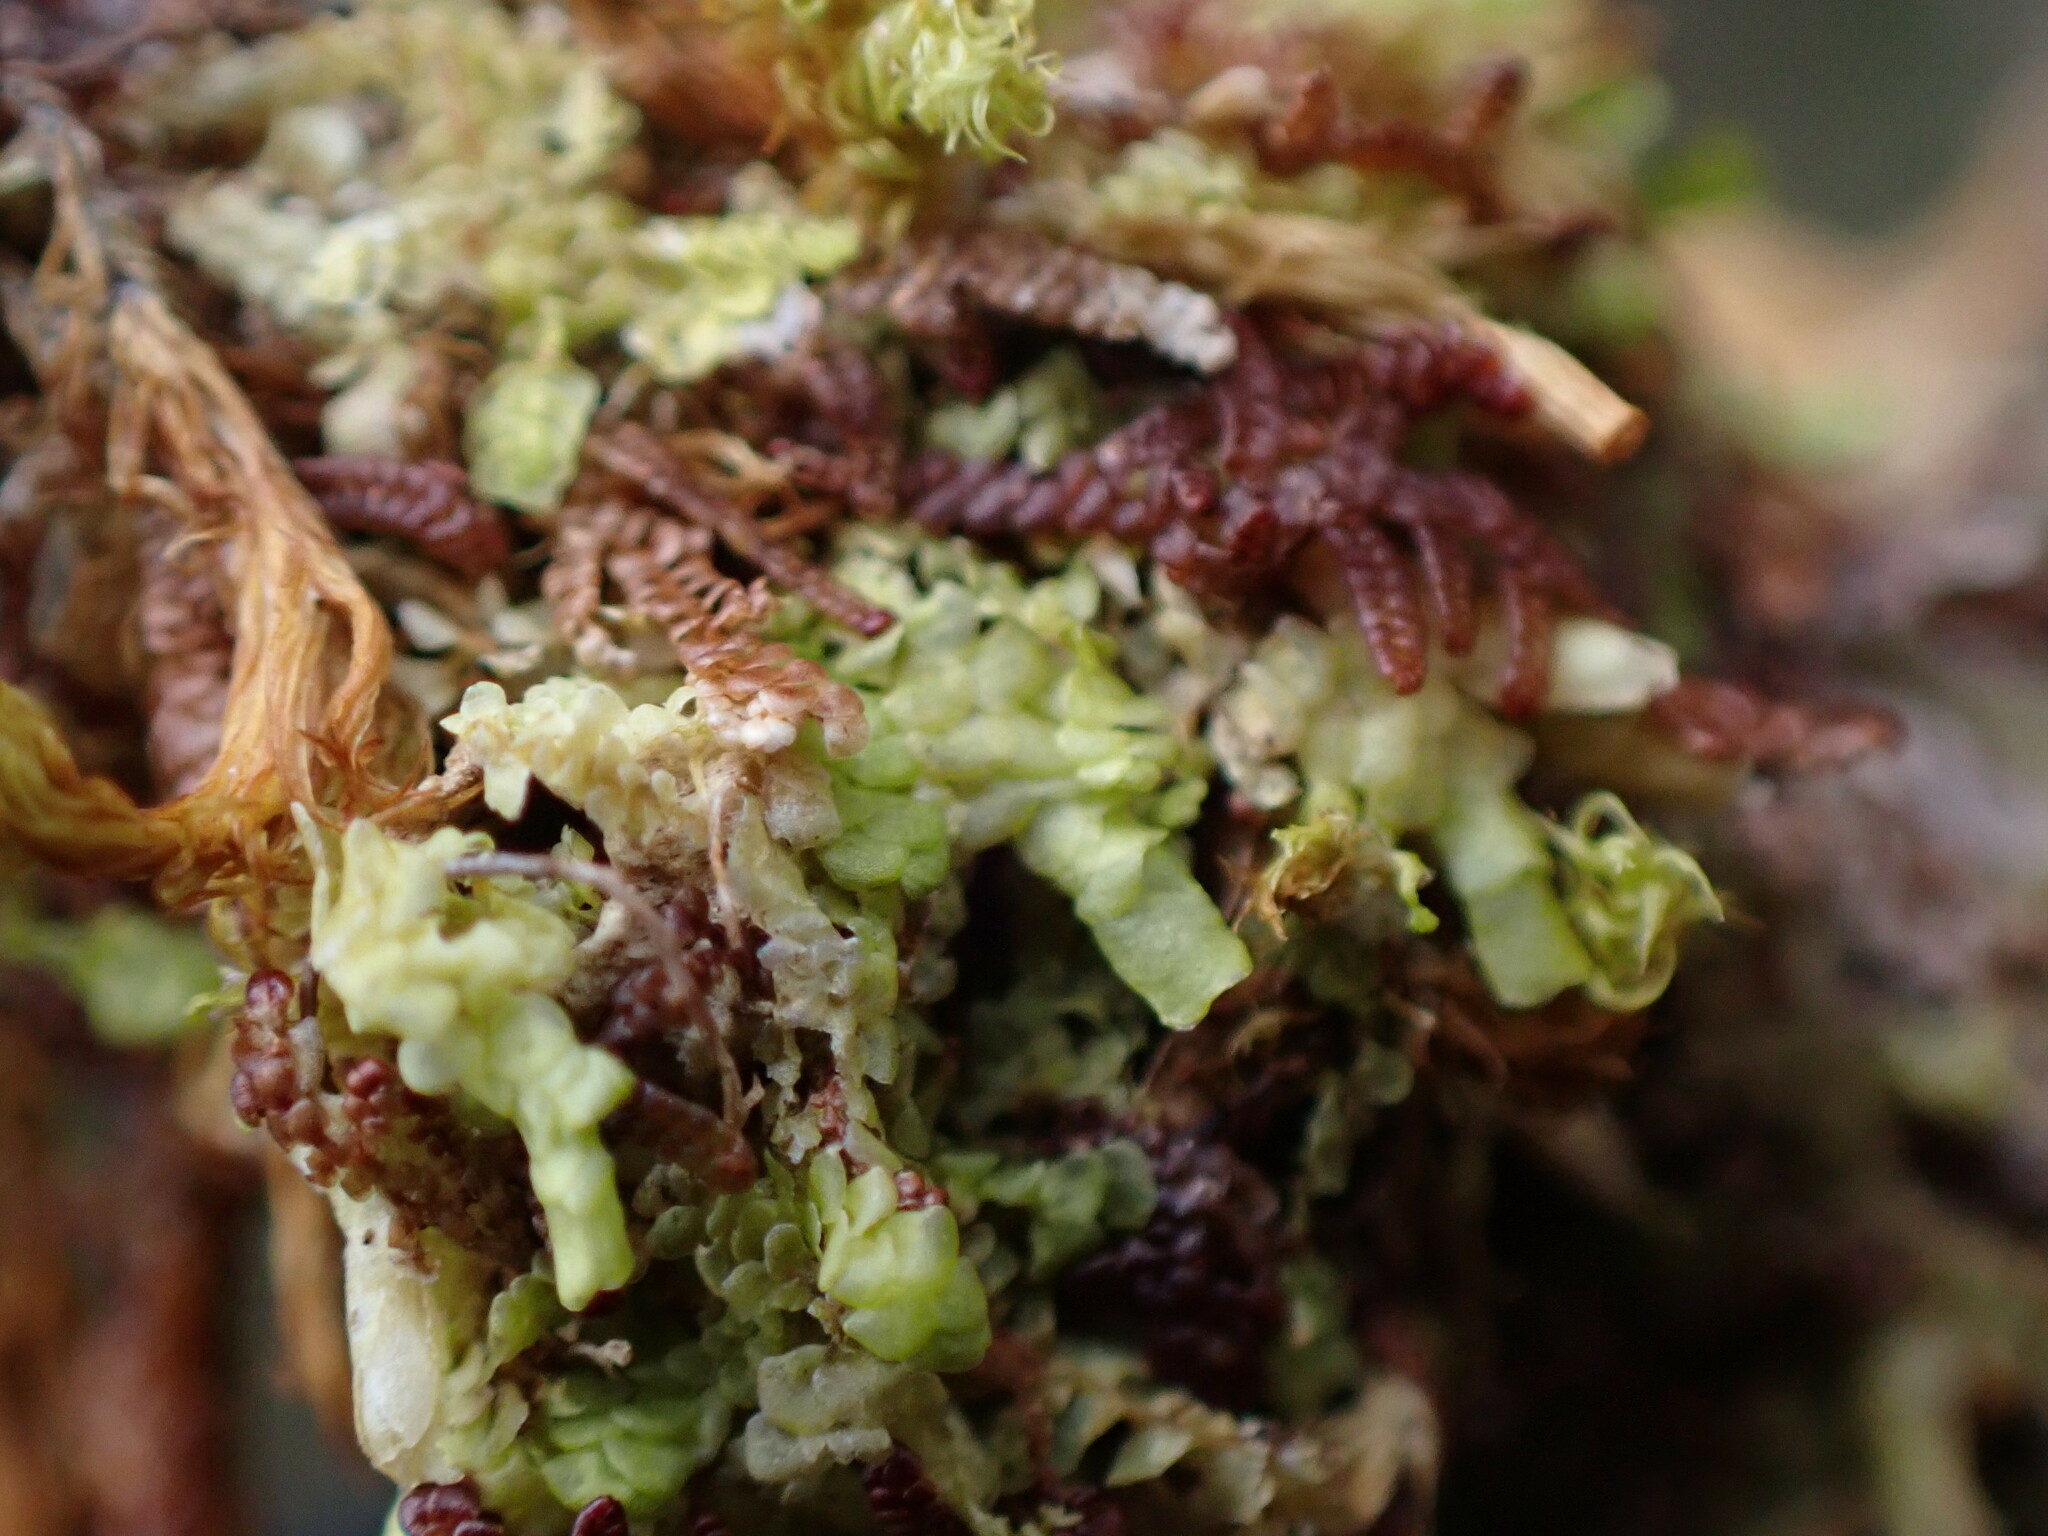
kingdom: Plantae
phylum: Marchantiophyta
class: Jungermanniopsida
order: Porellales
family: Radulaceae
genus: Radula
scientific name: Radula complanata
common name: Flat-leaved scalewort
